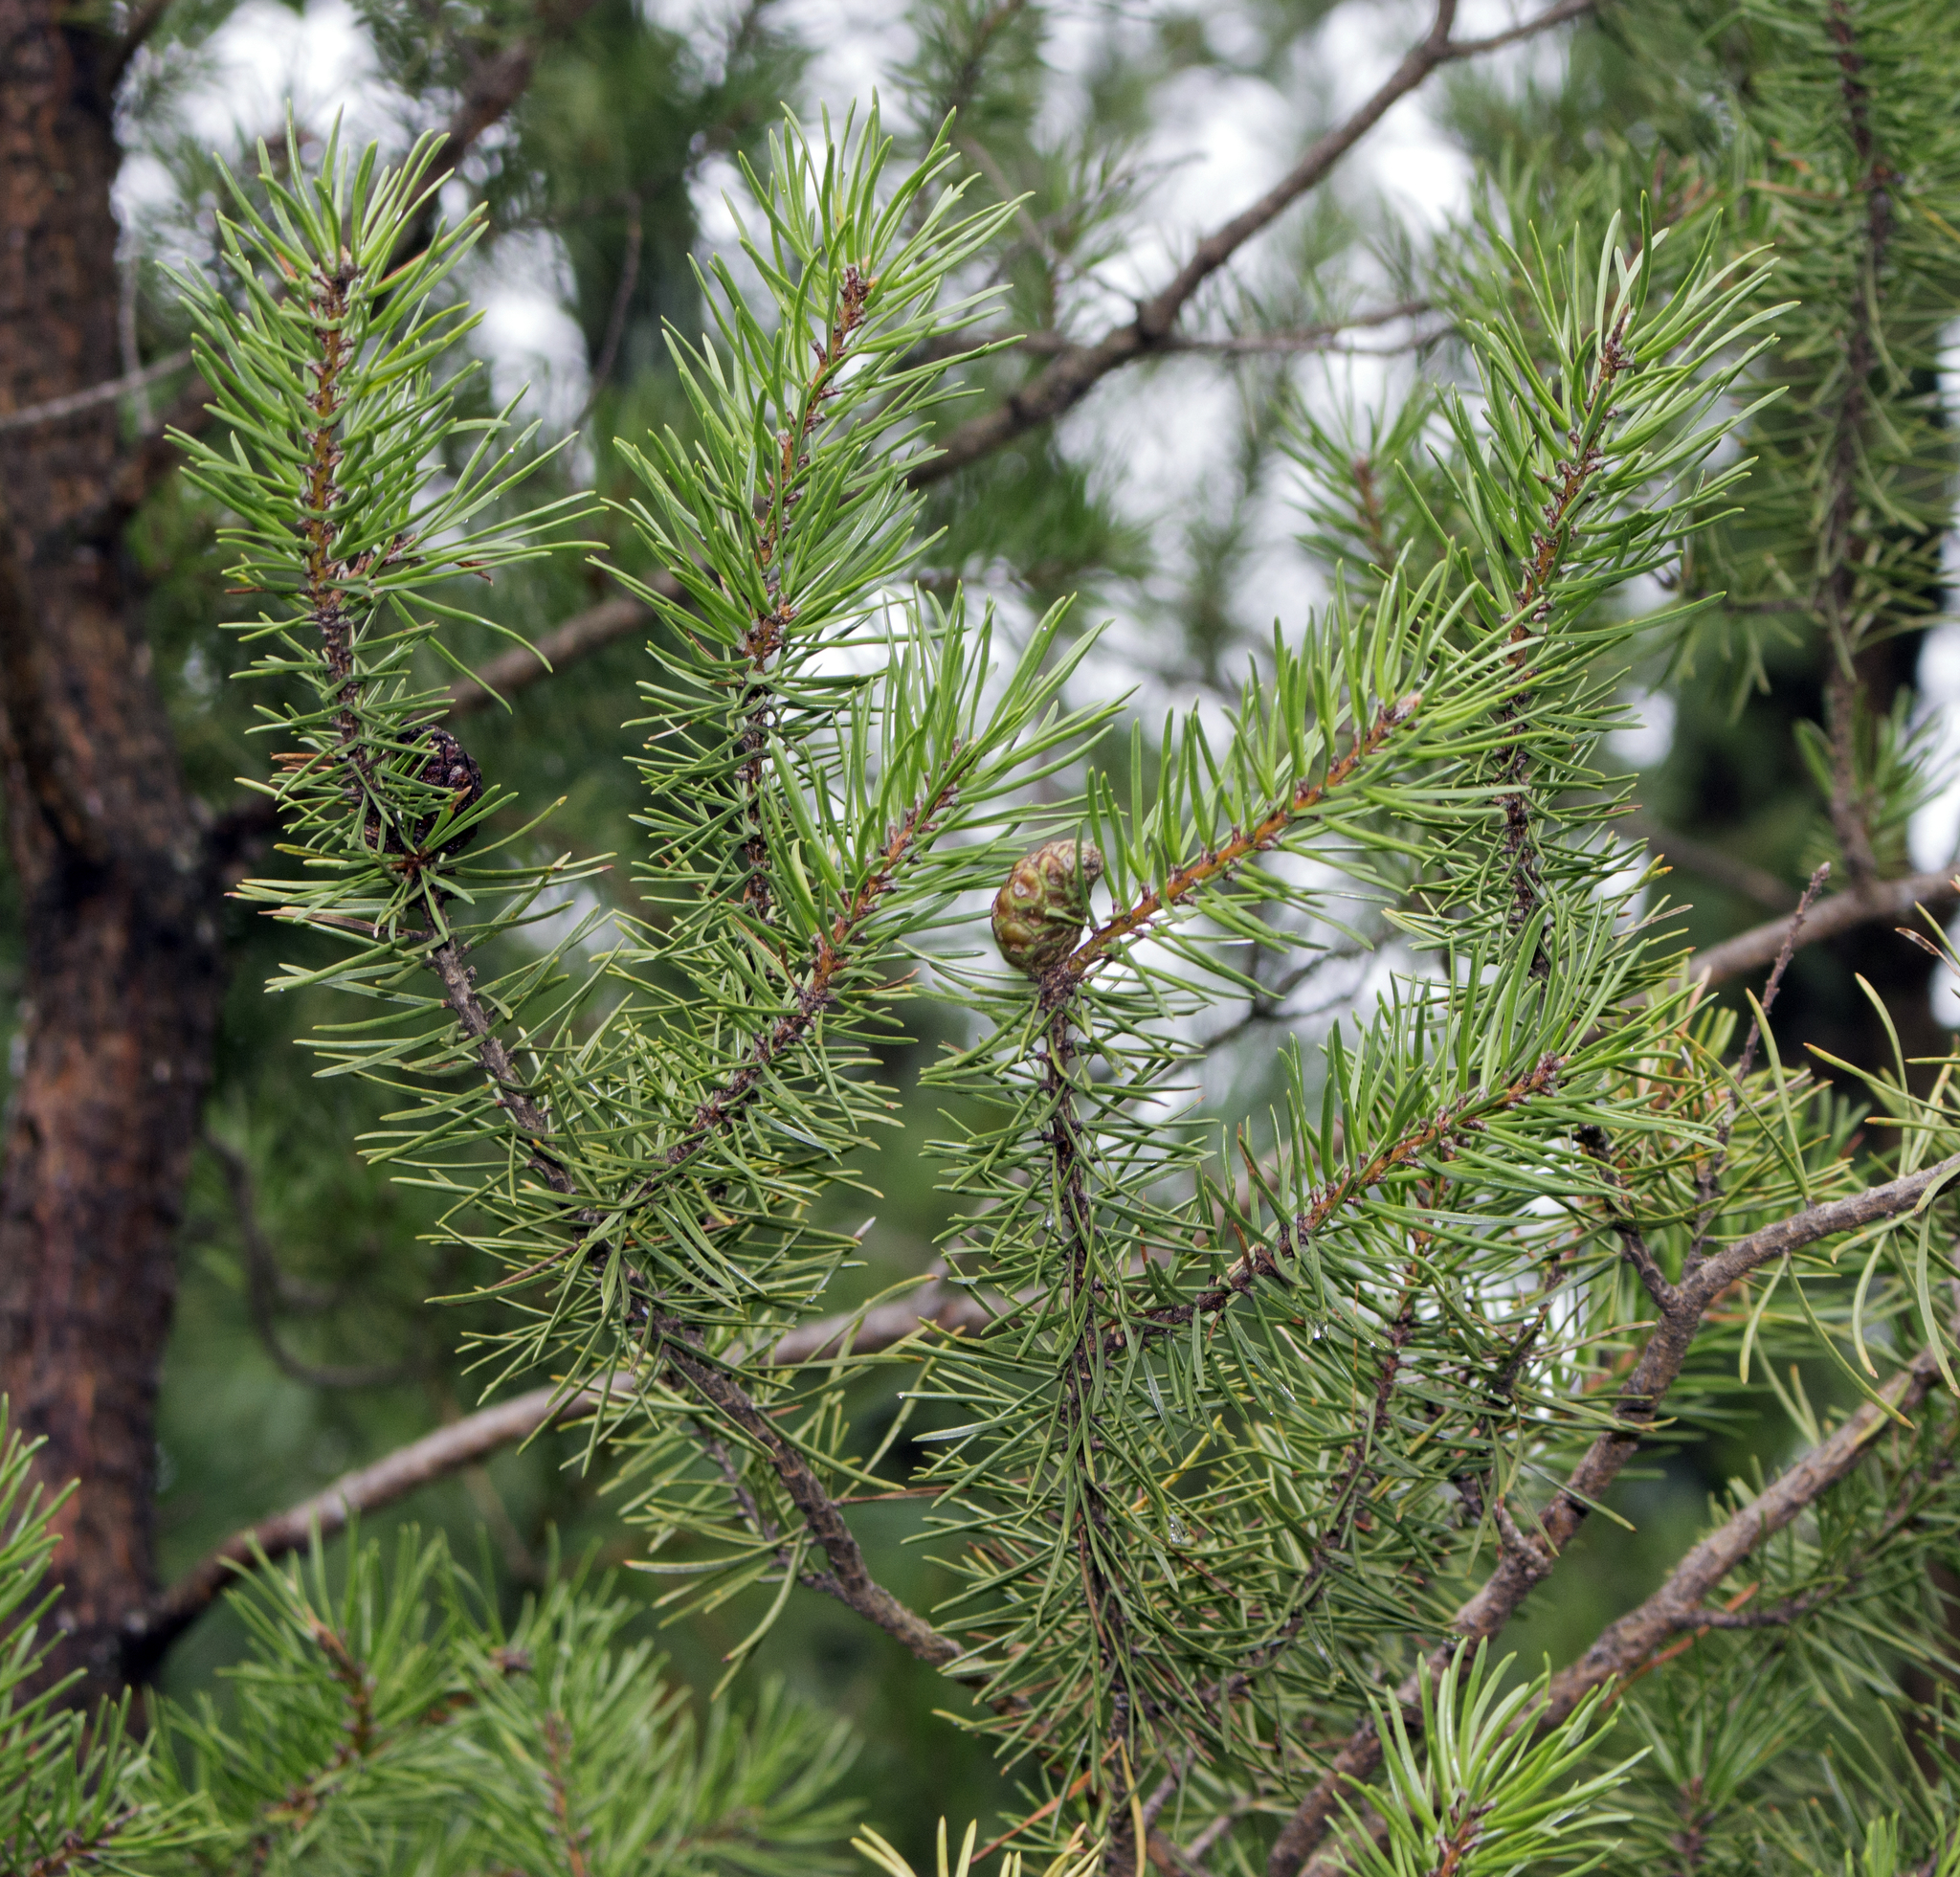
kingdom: Plantae
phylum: Tracheophyta
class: Pinopsida
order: Pinales
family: Pinaceae
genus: Pinus
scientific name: Pinus banksiana
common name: Jack pine
